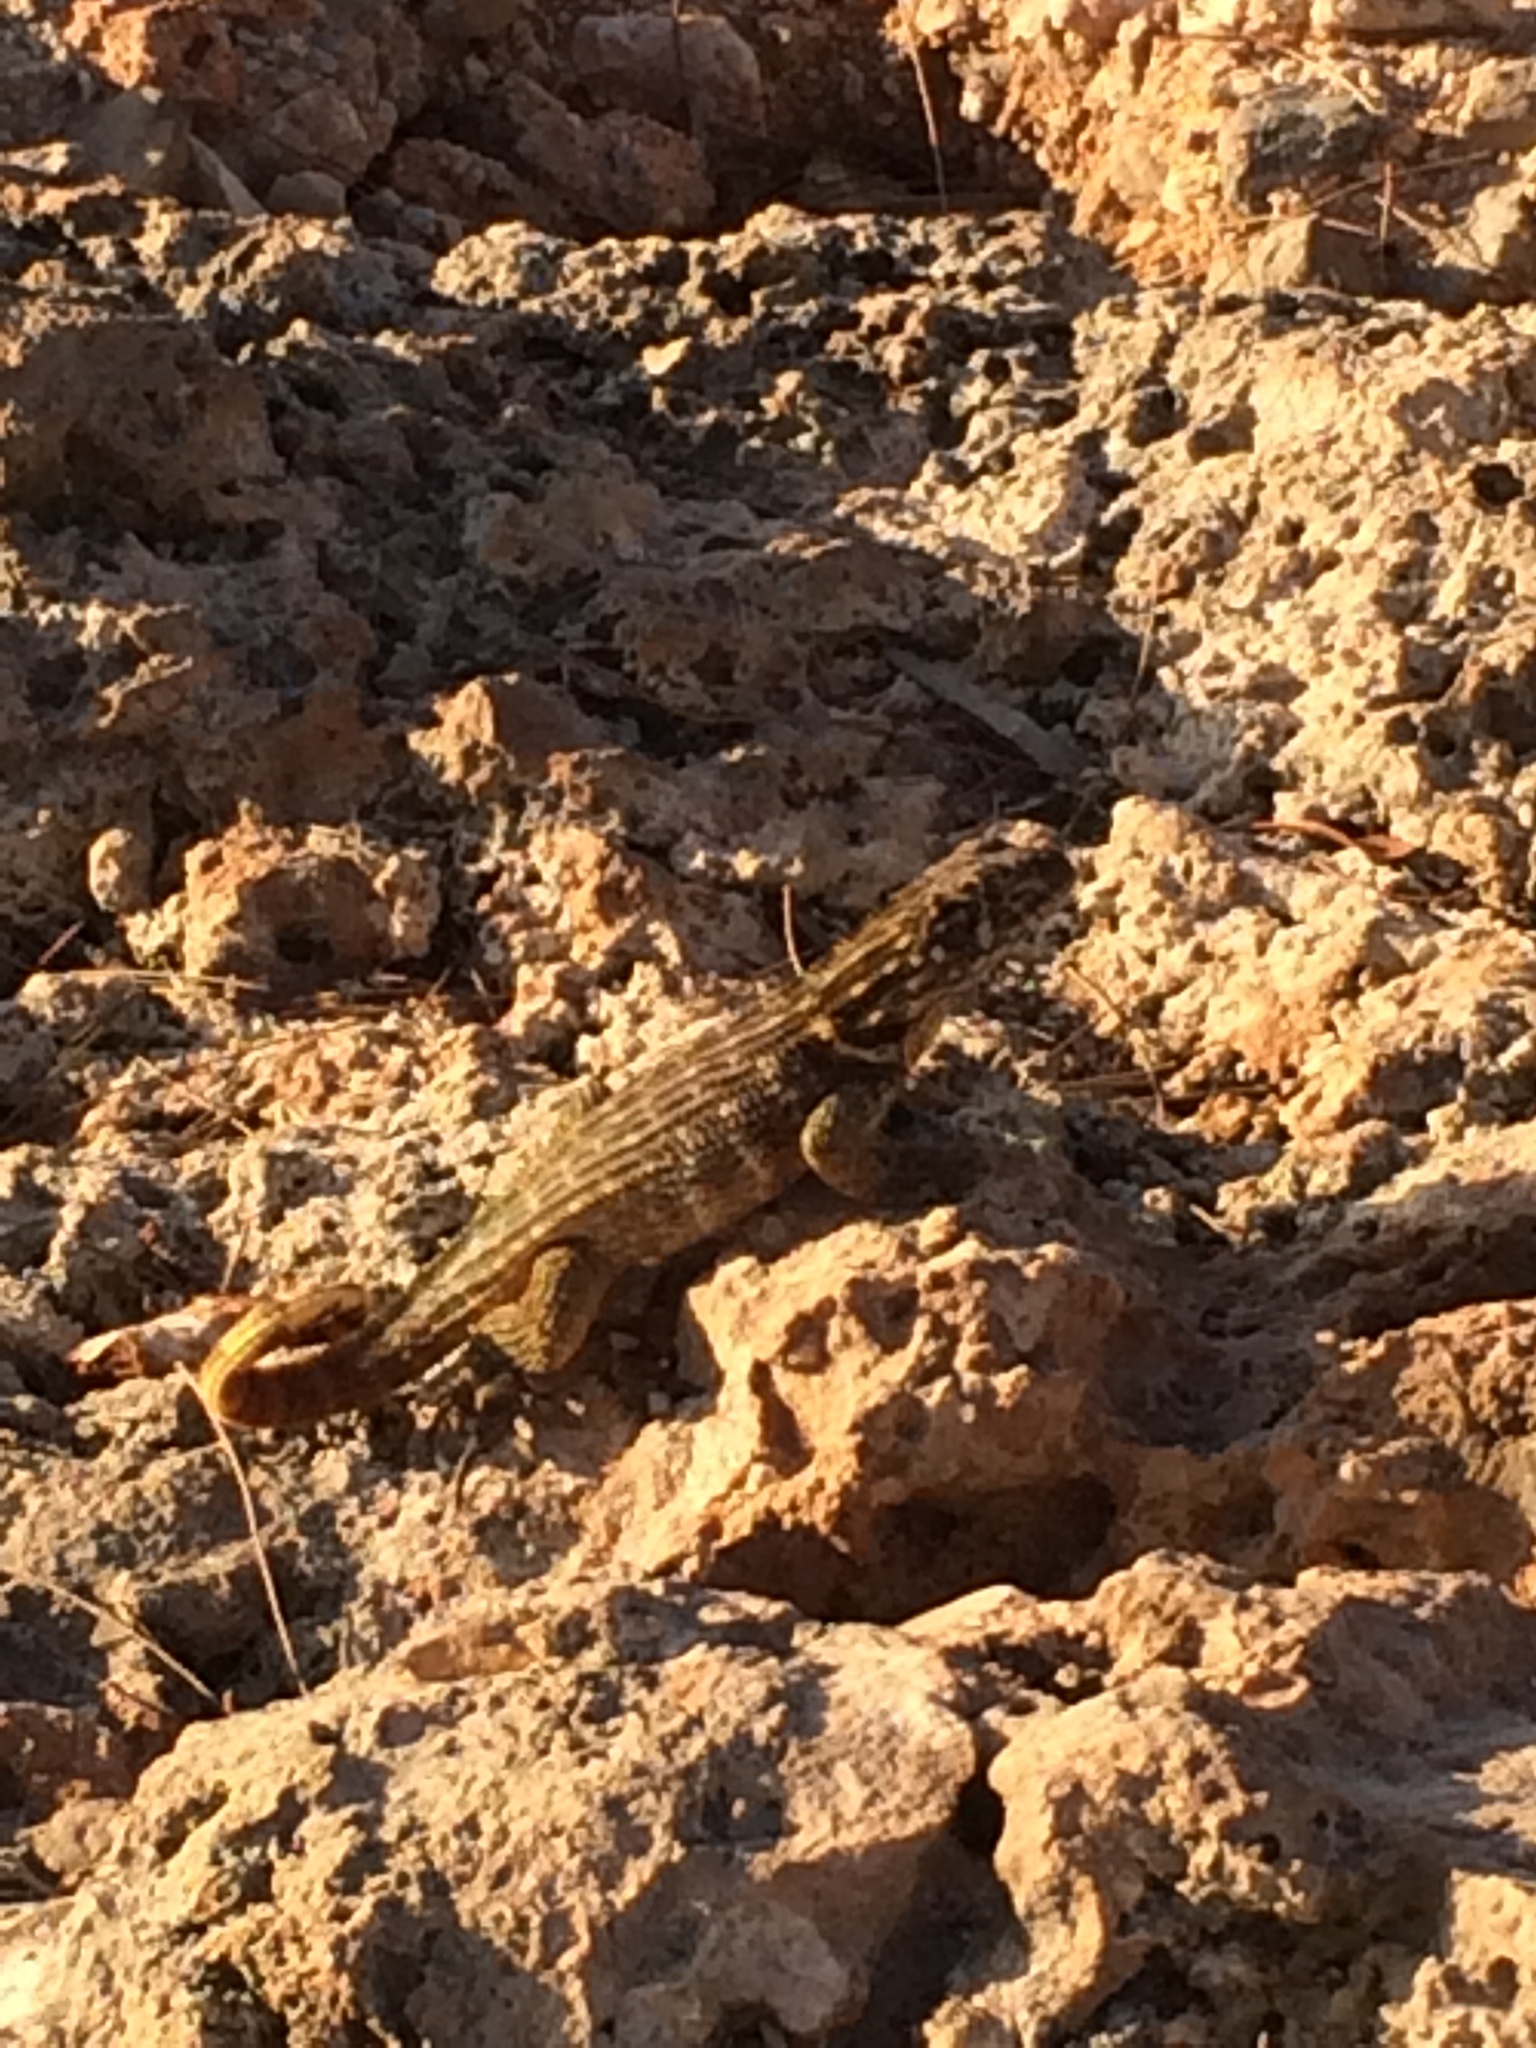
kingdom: Animalia
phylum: Chordata
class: Squamata
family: Leiocephalidae
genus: Leiocephalus
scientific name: Leiocephalus carinatus
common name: Northern curly-tailed lizard
